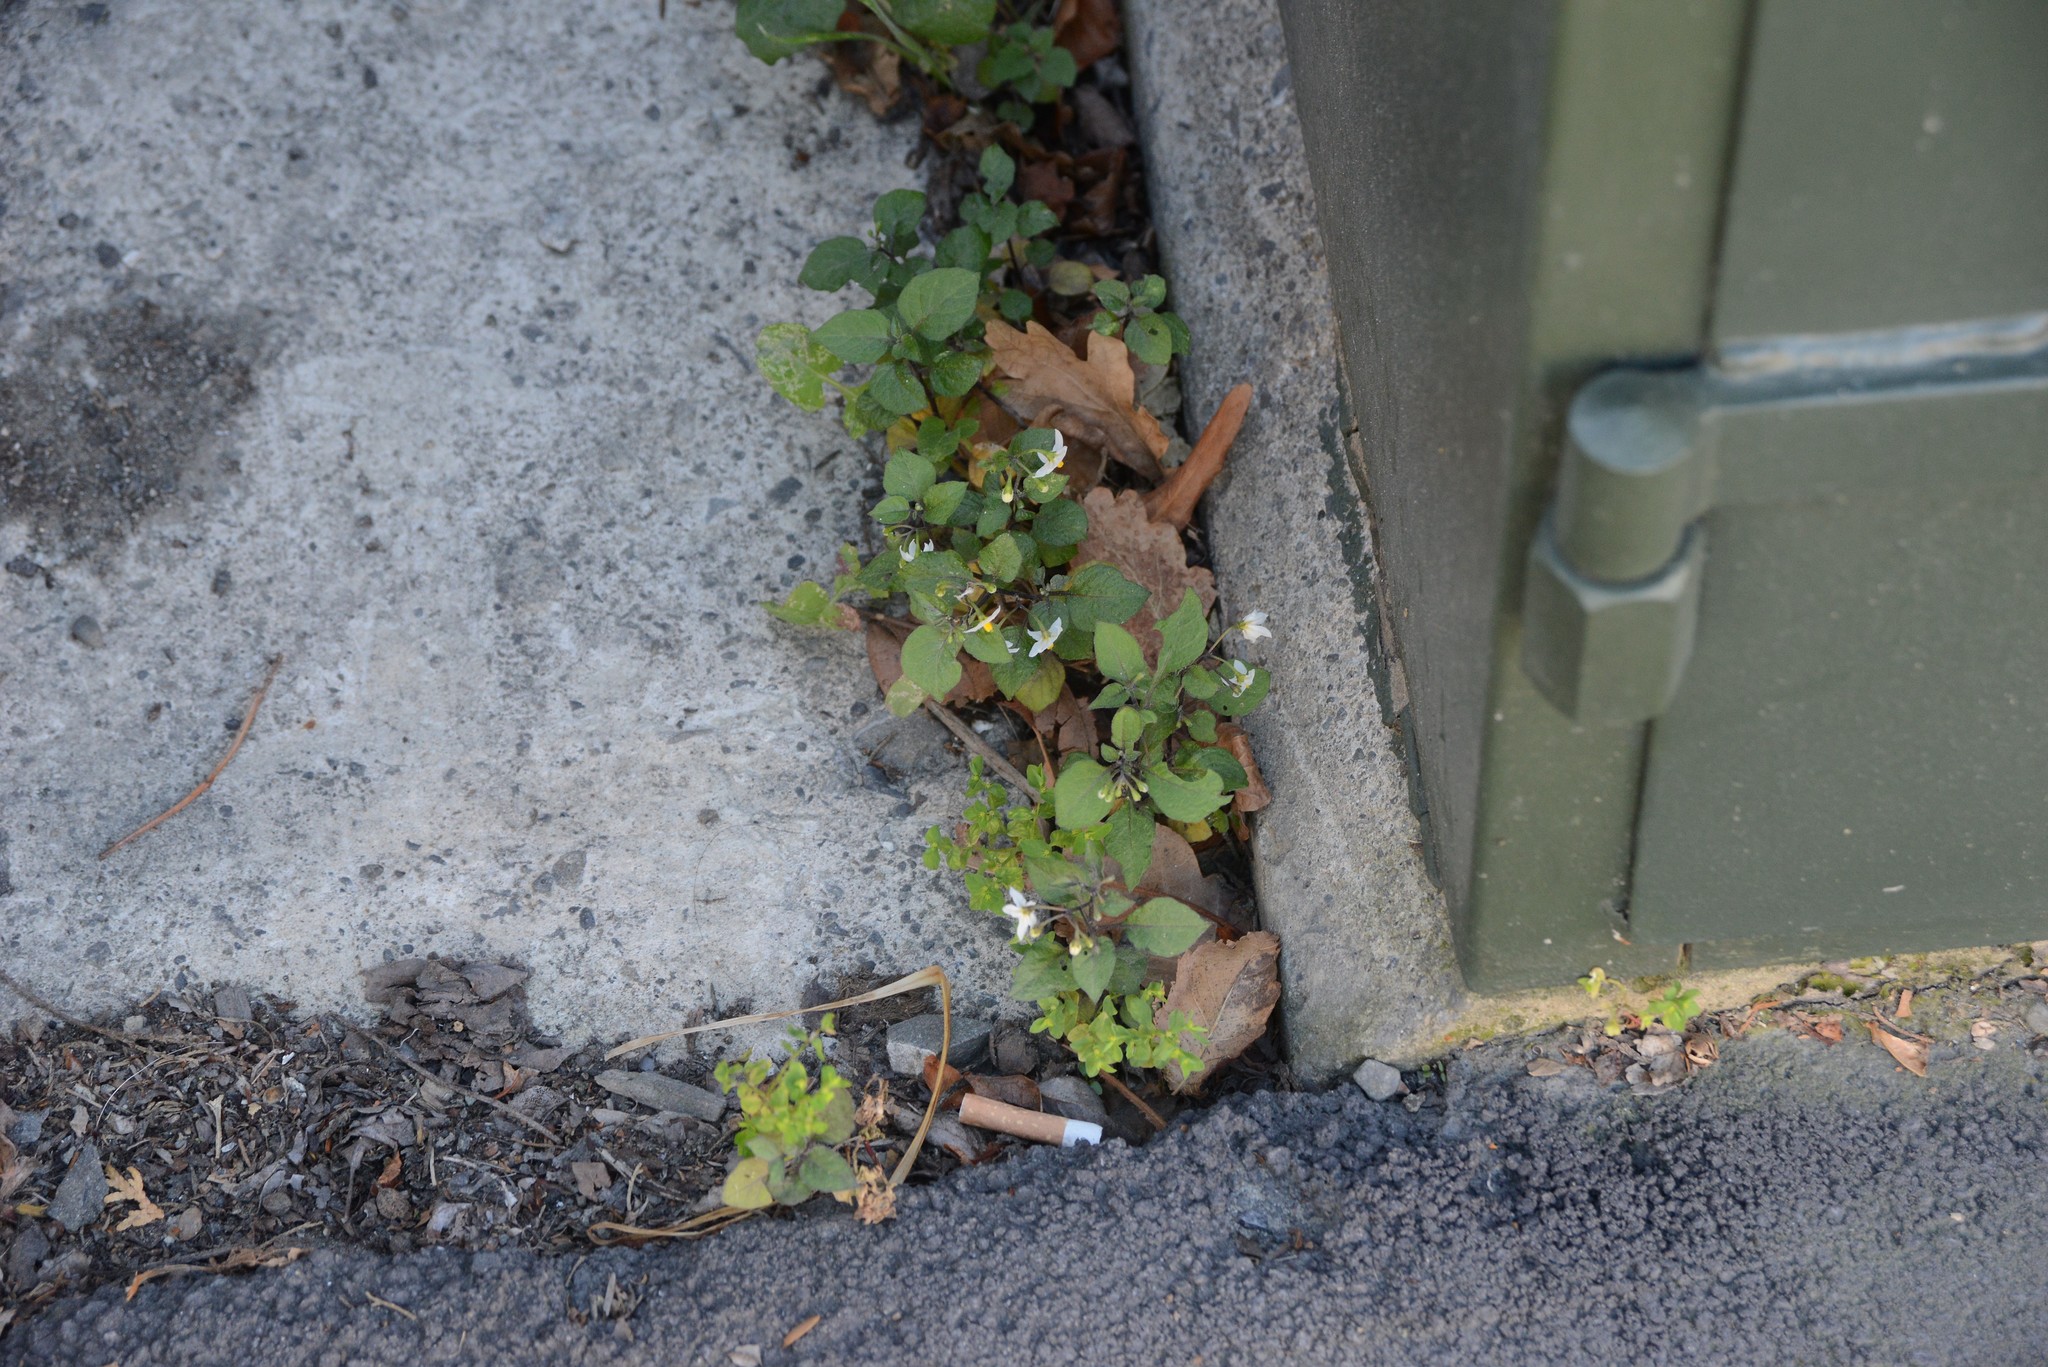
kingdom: Plantae
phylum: Tracheophyta
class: Magnoliopsida
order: Solanales
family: Solanaceae
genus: Solanum
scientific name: Solanum
